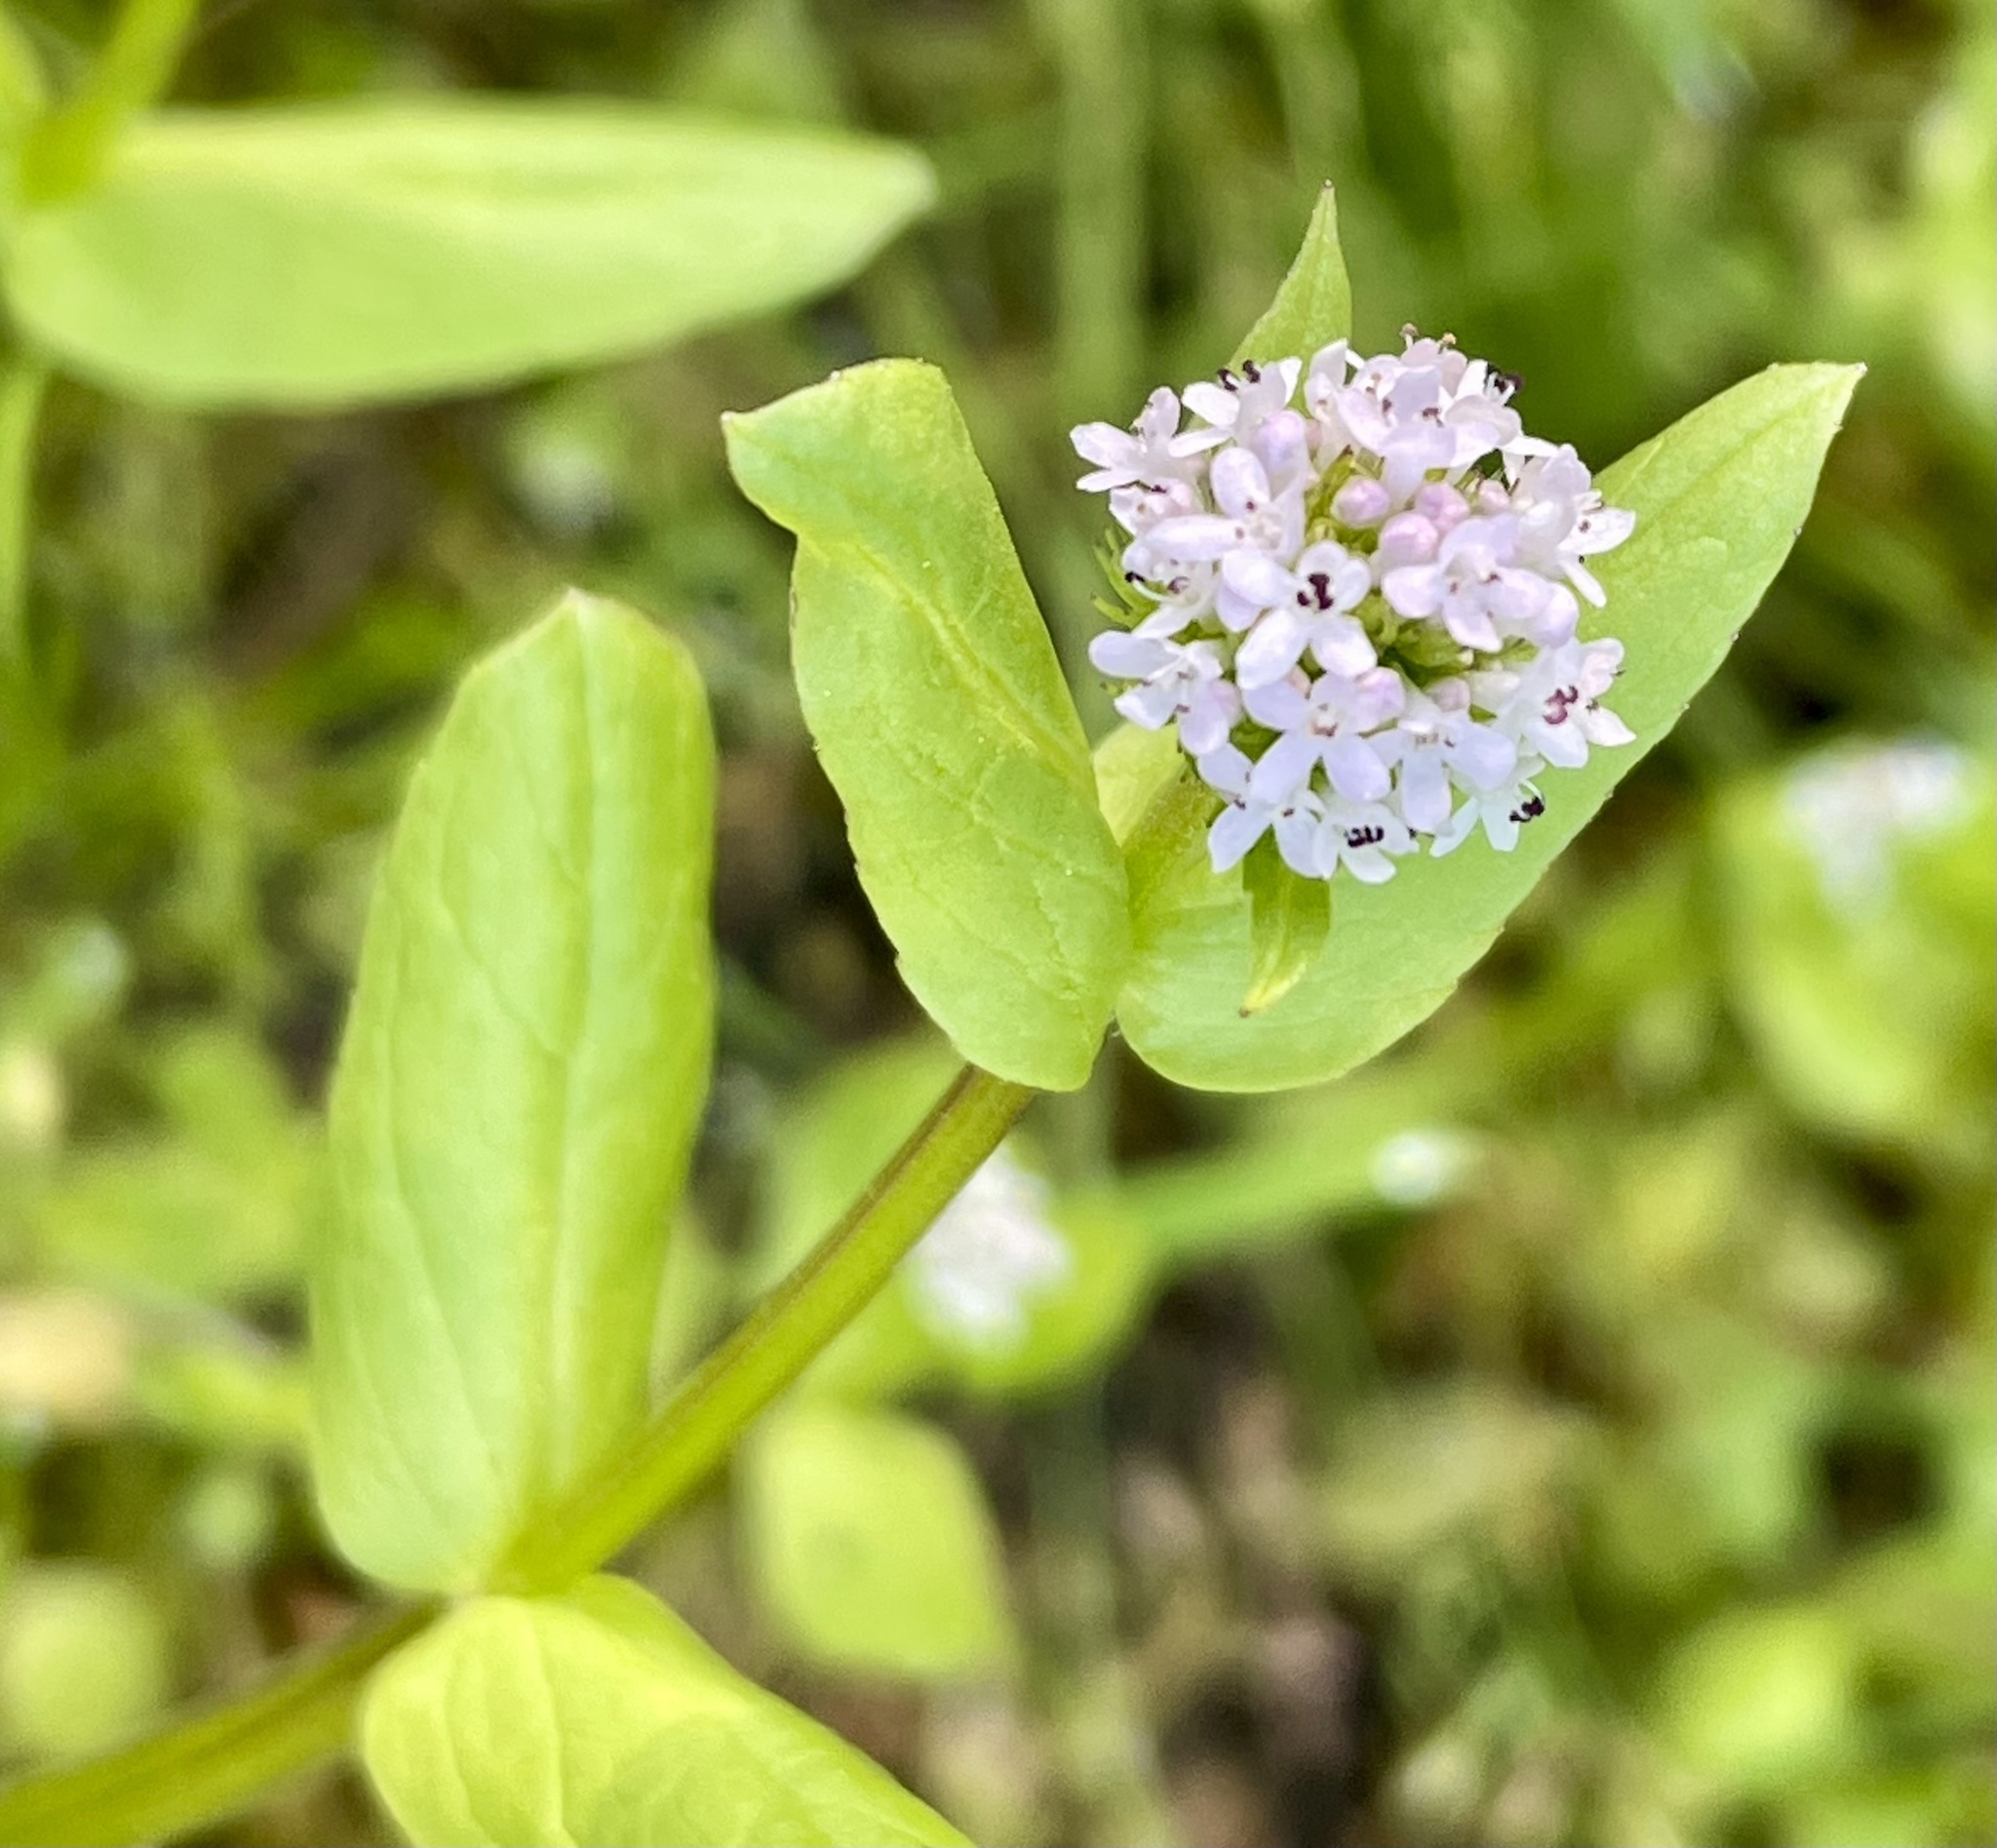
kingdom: Plantae
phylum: Tracheophyta
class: Magnoliopsida
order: Dipsacales
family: Caprifoliaceae
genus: Plectritis
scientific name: Plectritis macroptera
